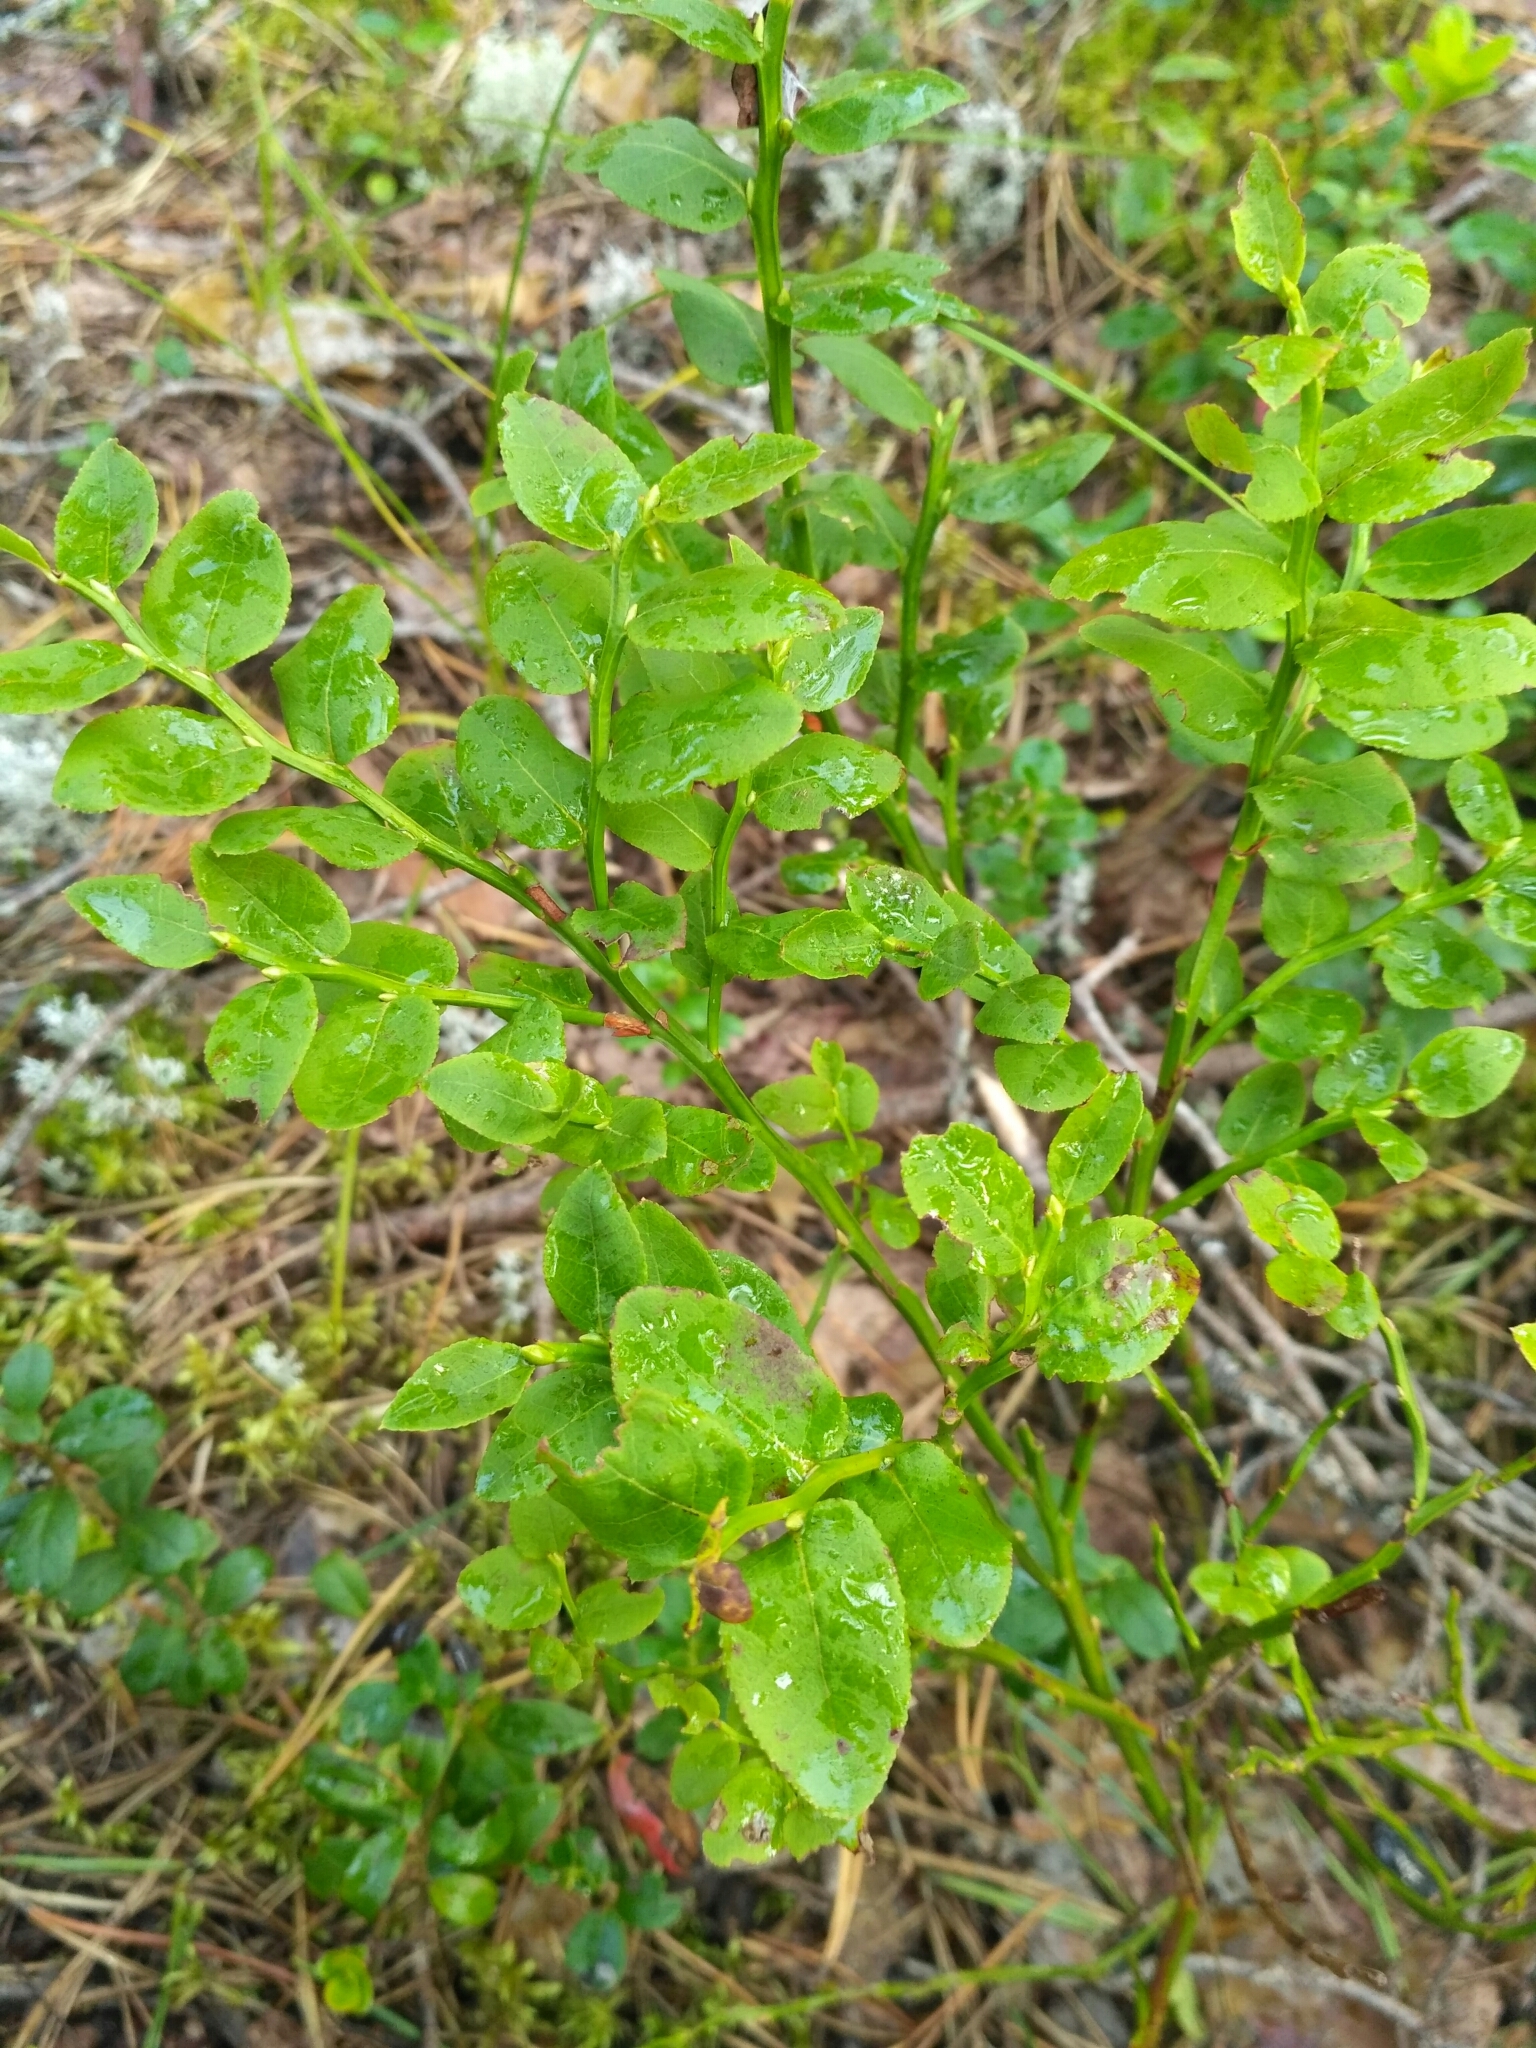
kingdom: Plantae
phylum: Tracheophyta
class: Magnoliopsida
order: Ericales
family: Ericaceae
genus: Vaccinium
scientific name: Vaccinium myrtillus
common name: Bilberry
